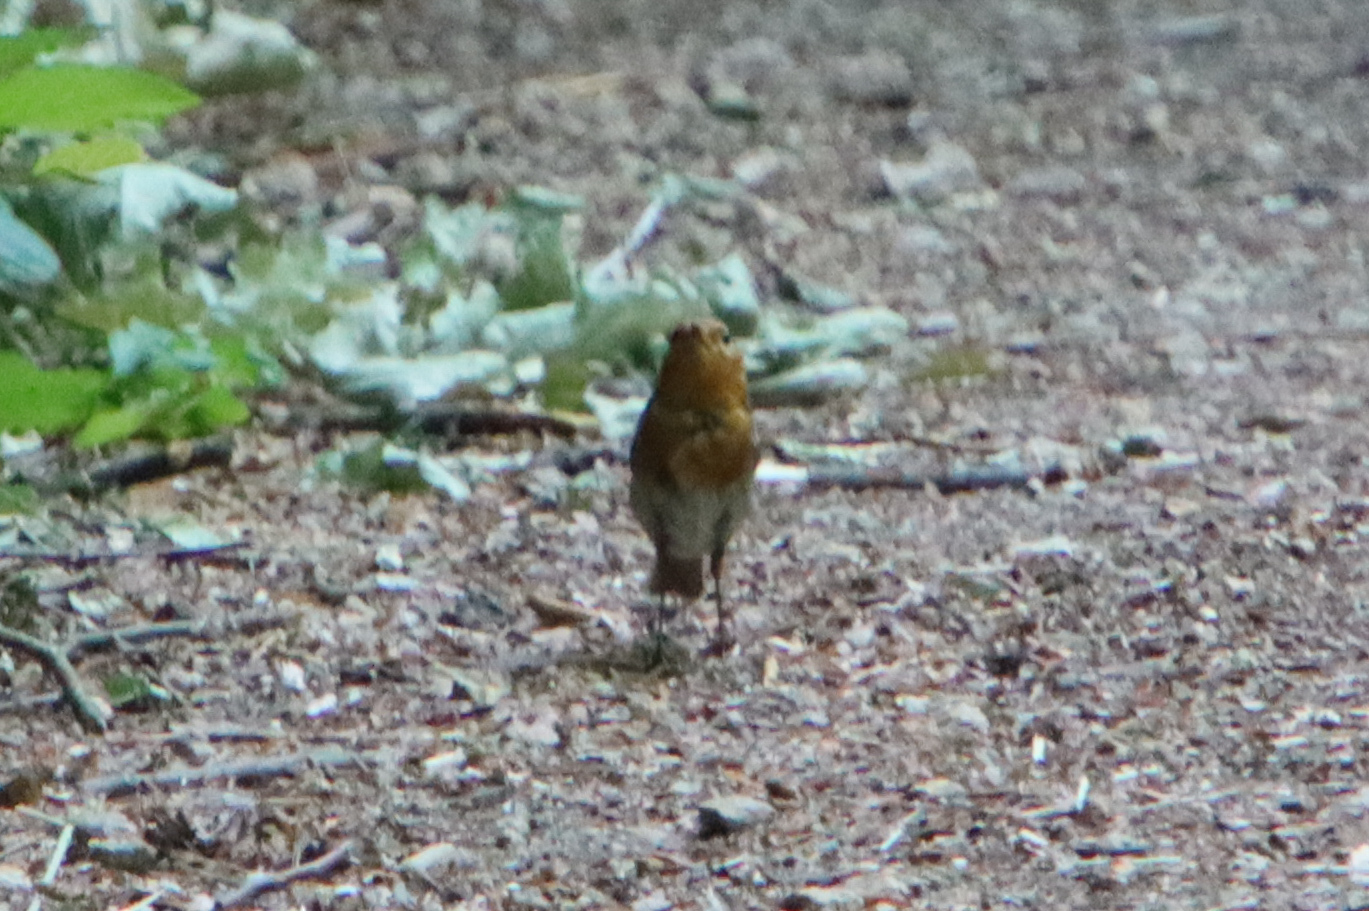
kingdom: Animalia
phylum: Chordata
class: Aves
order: Passeriformes
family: Muscicapidae
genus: Erithacus
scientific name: Erithacus rubecula
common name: European robin
